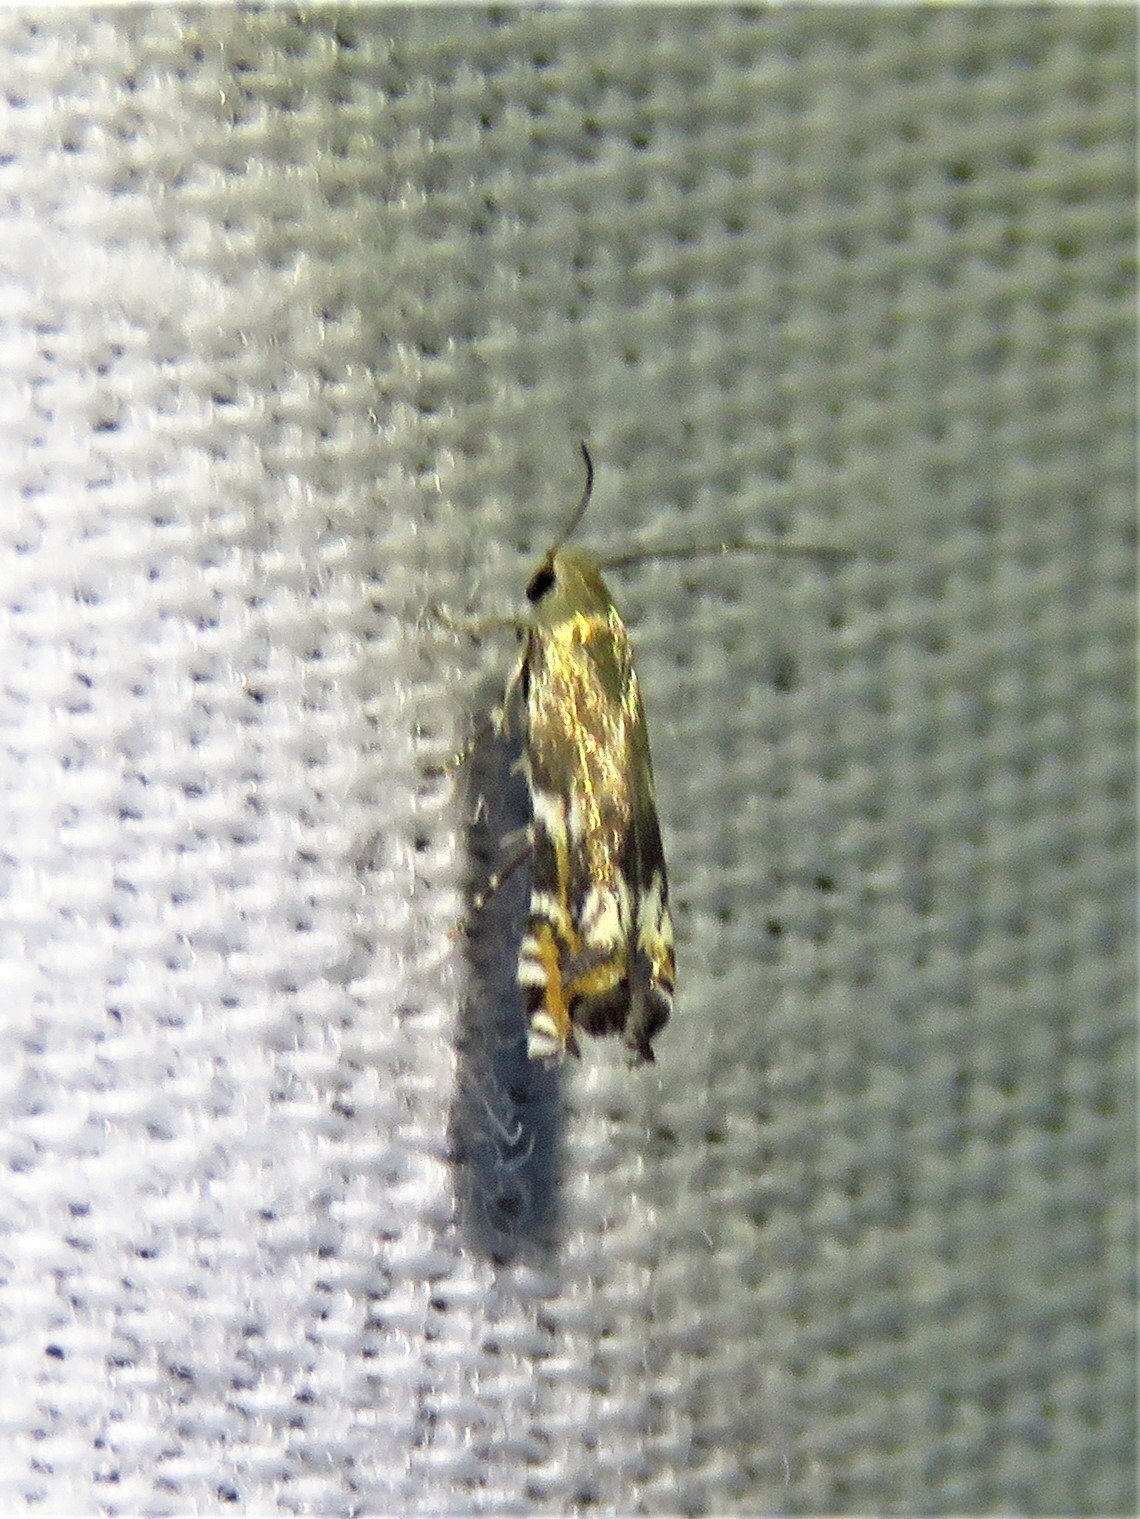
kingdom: Animalia
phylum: Arthropoda
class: Insecta
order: Lepidoptera
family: Gelechiidae
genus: Calliprora
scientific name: Calliprora sexstrigella
